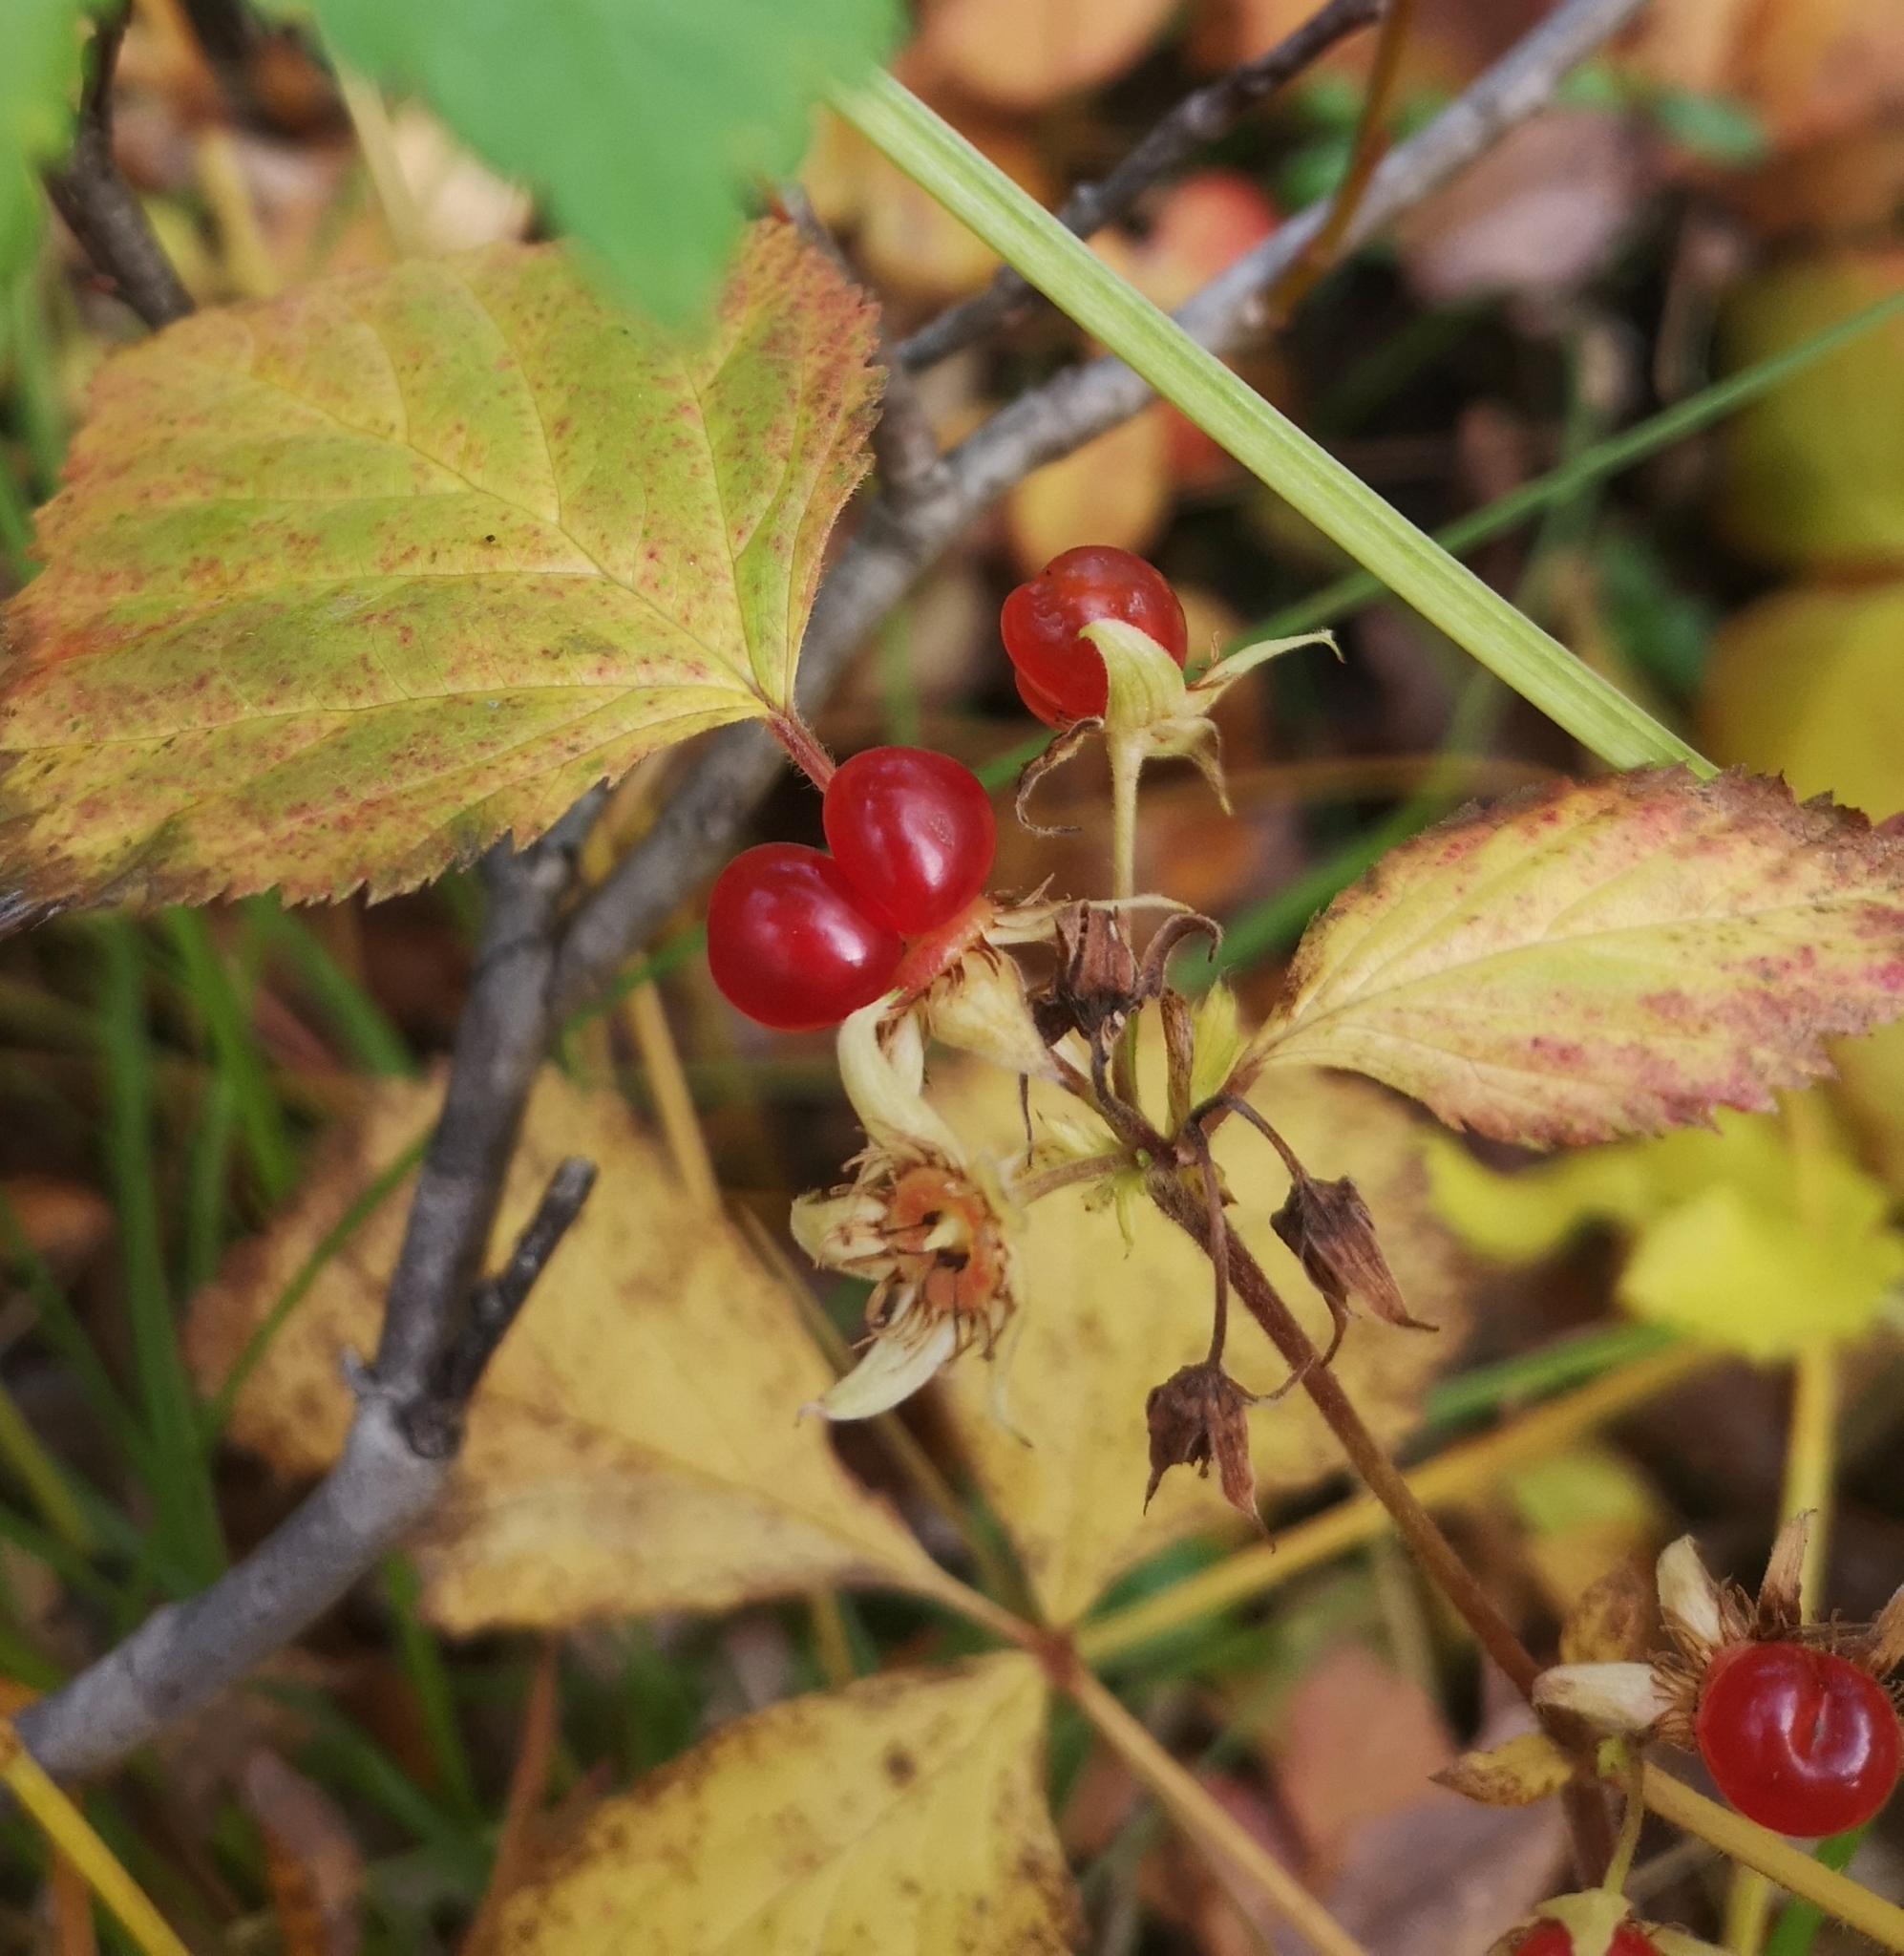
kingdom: Plantae
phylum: Tracheophyta
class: Magnoliopsida
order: Rosales
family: Rosaceae
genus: Rubus
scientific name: Rubus saxatilis
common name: Stone bramble
